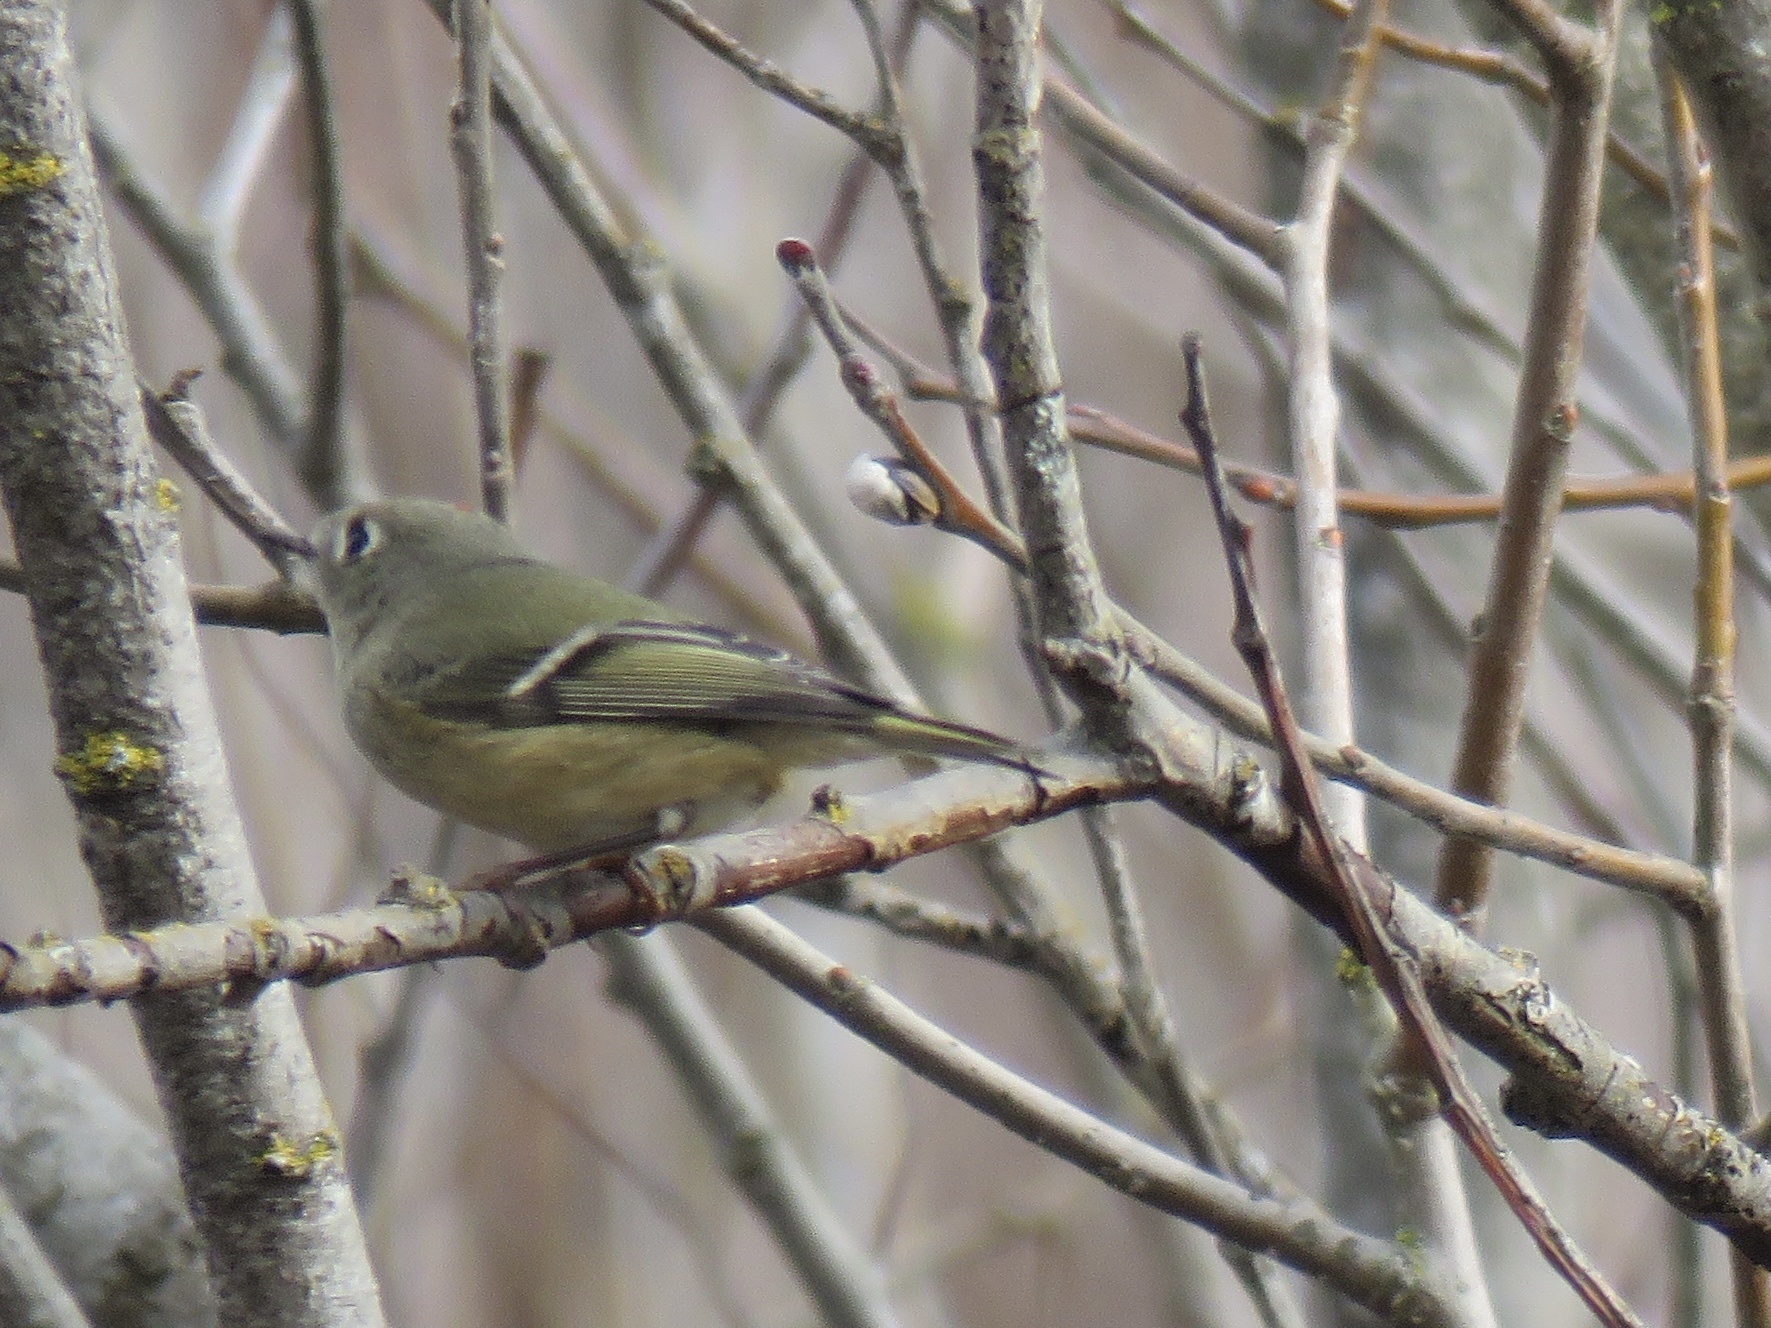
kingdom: Animalia
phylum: Chordata
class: Aves
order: Passeriformes
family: Regulidae
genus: Regulus
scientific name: Regulus calendula
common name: Ruby-crowned kinglet
